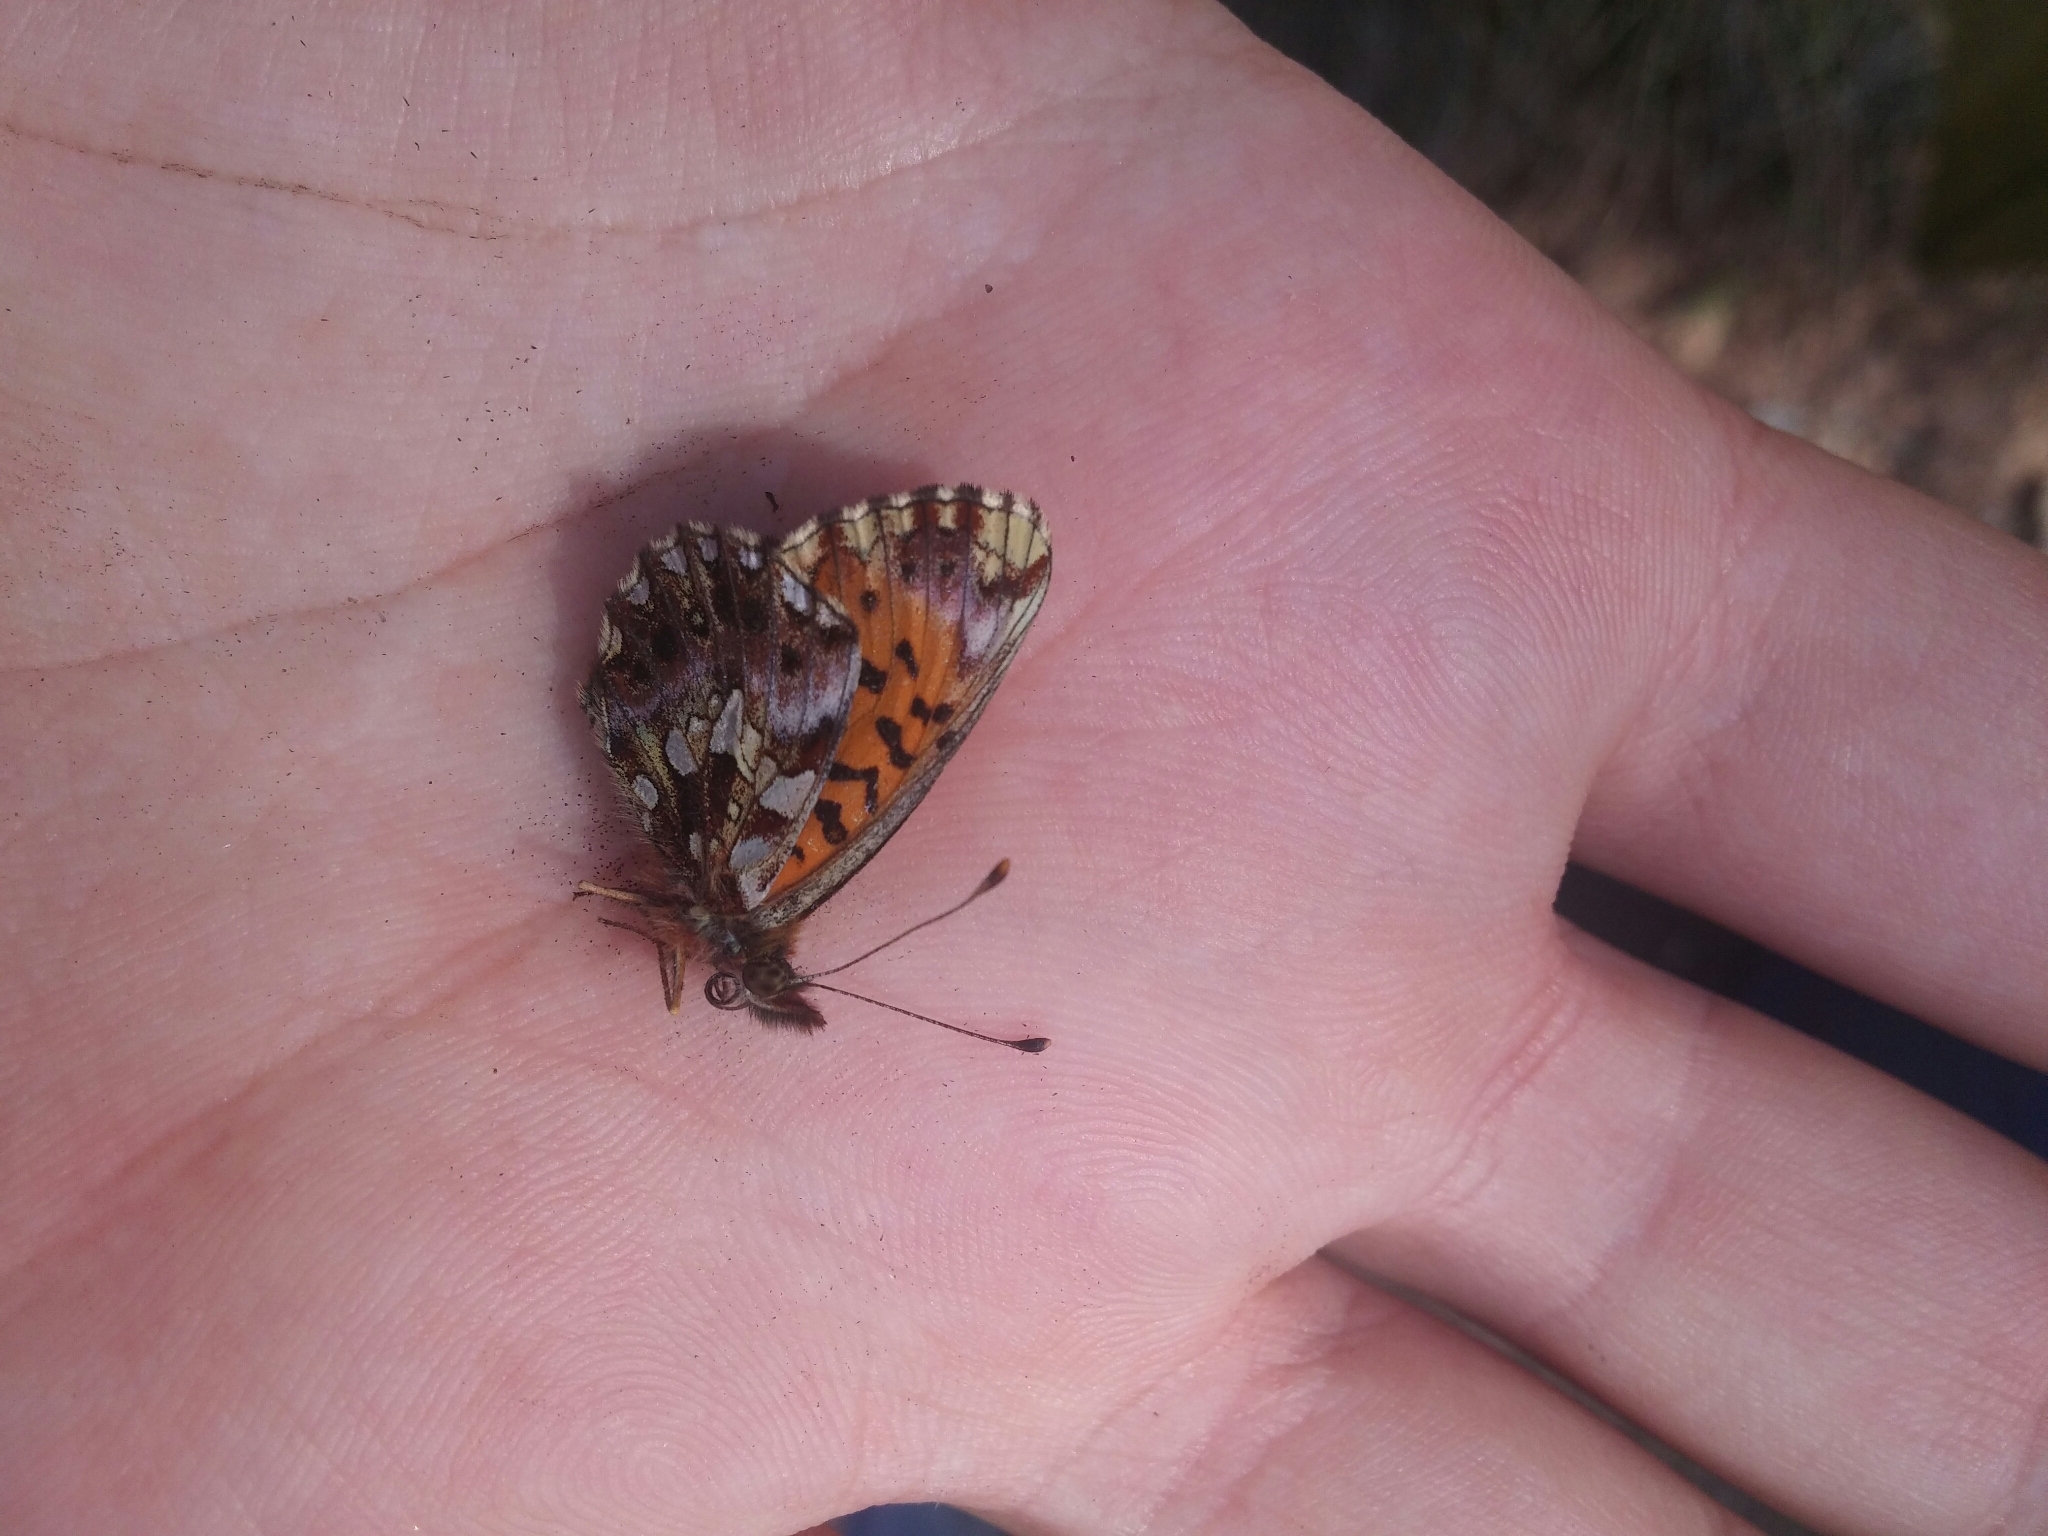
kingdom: Animalia
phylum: Arthropoda
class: Insecta
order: Lepidoptera
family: Nymphalidae
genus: Boloria
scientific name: Boloria dia
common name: Weaver's fritillary
